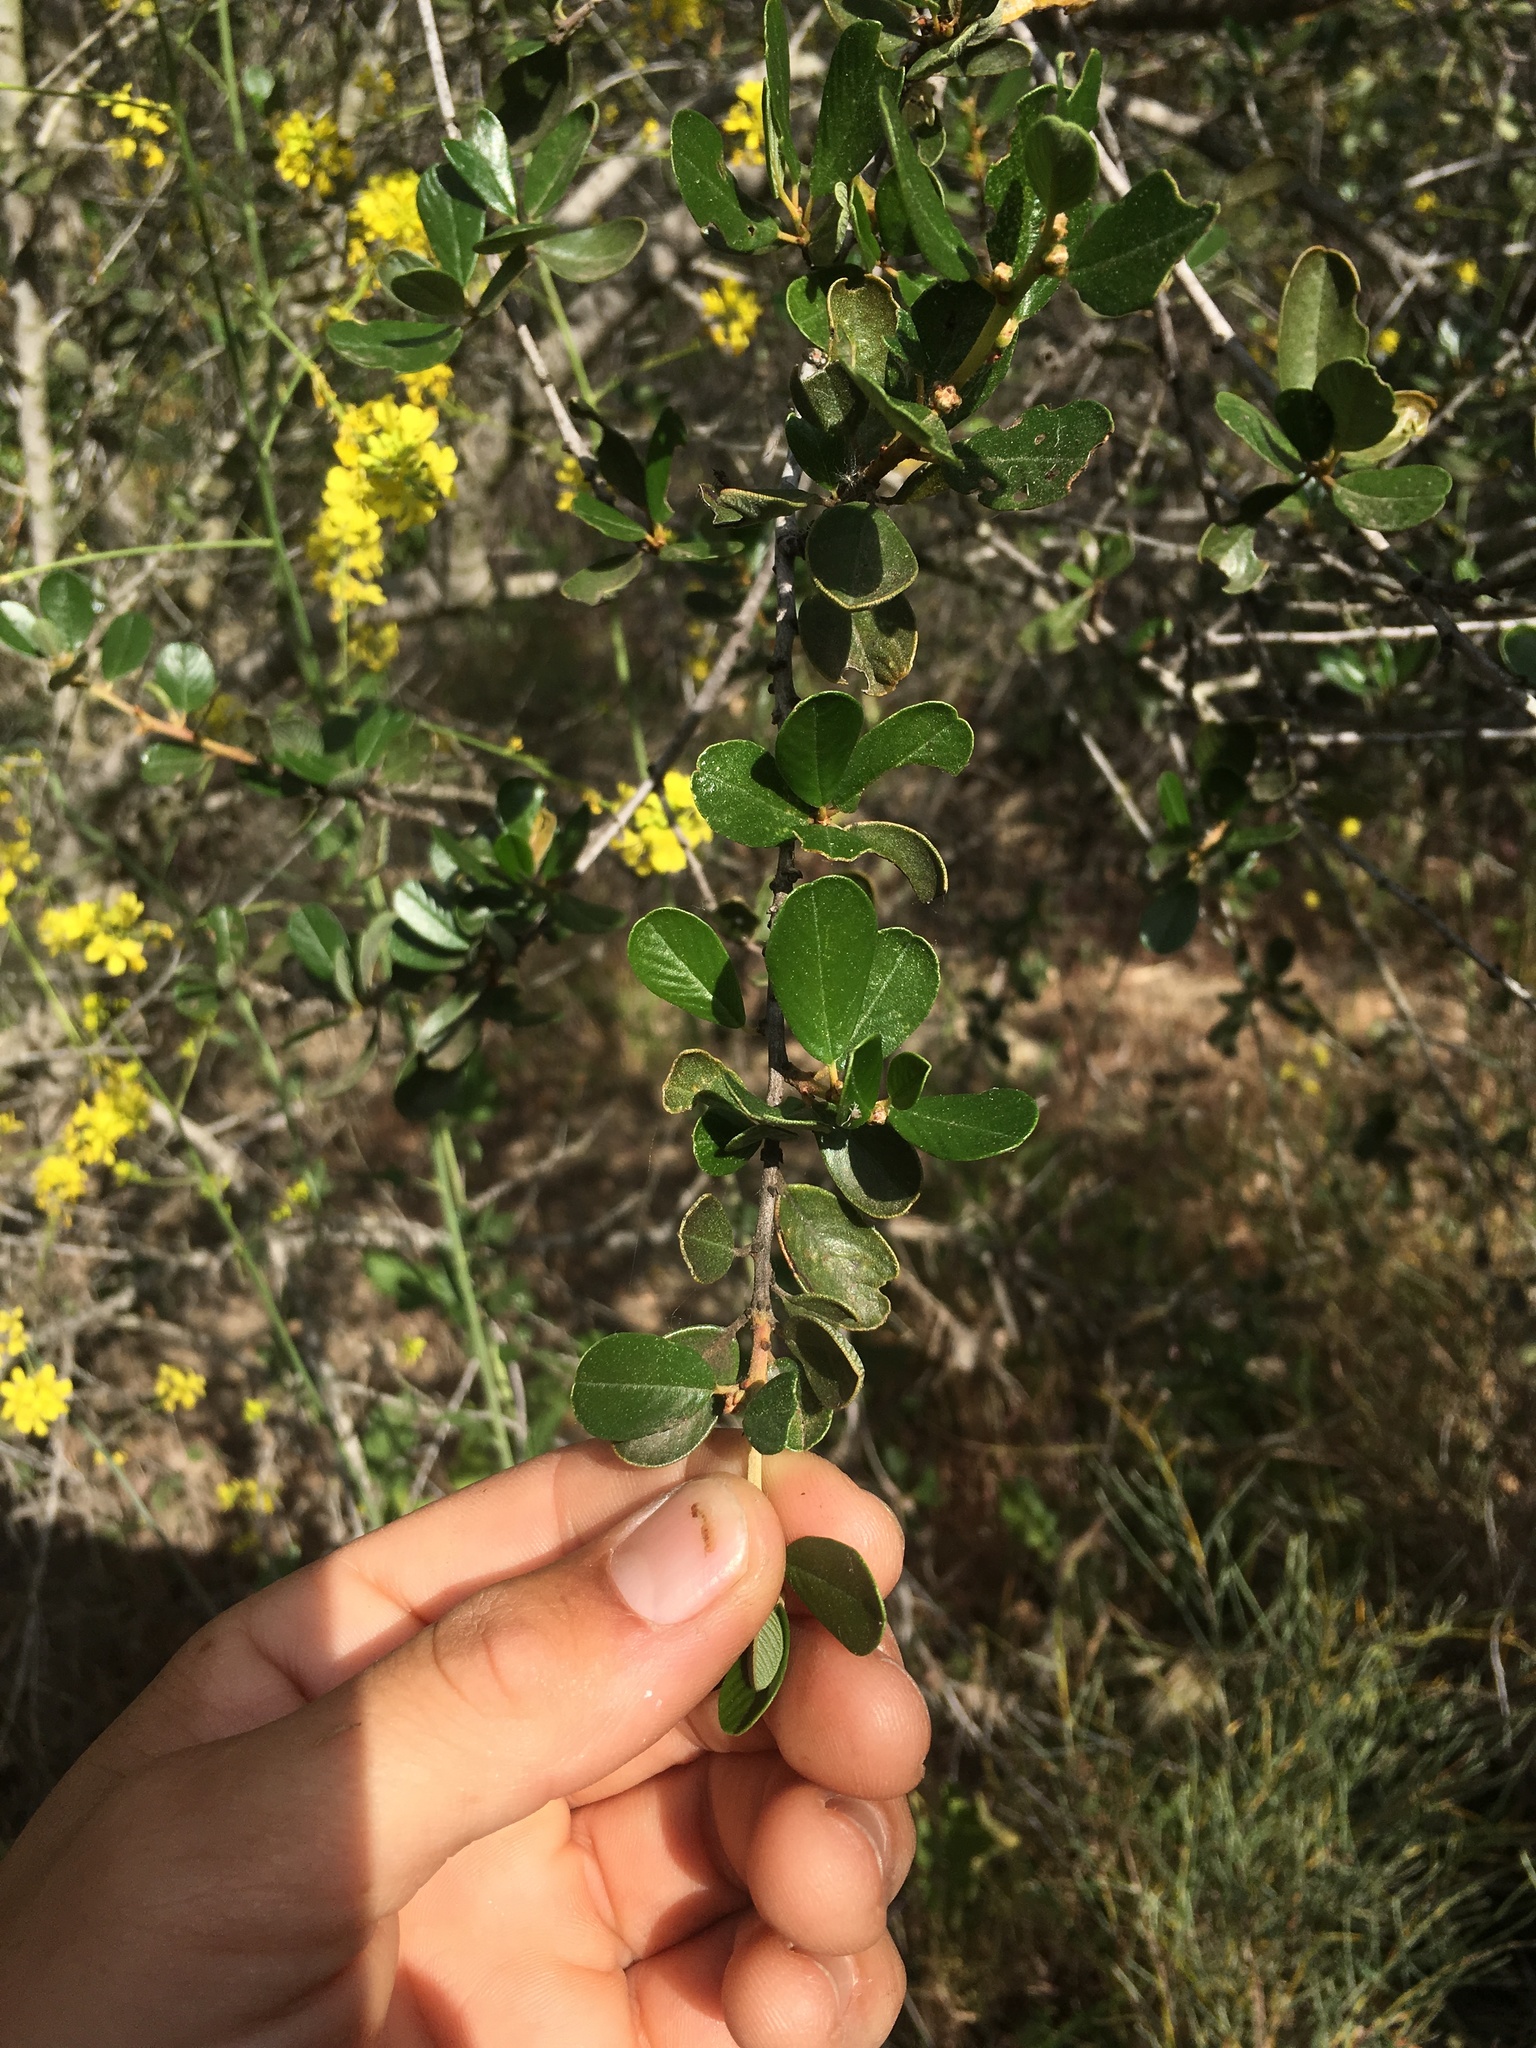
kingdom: Plantae
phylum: Tracheophyta
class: Magnoliopsida
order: Rosales
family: Rhamnaceae
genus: Ceanothus
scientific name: Ceanothus megacarpus
